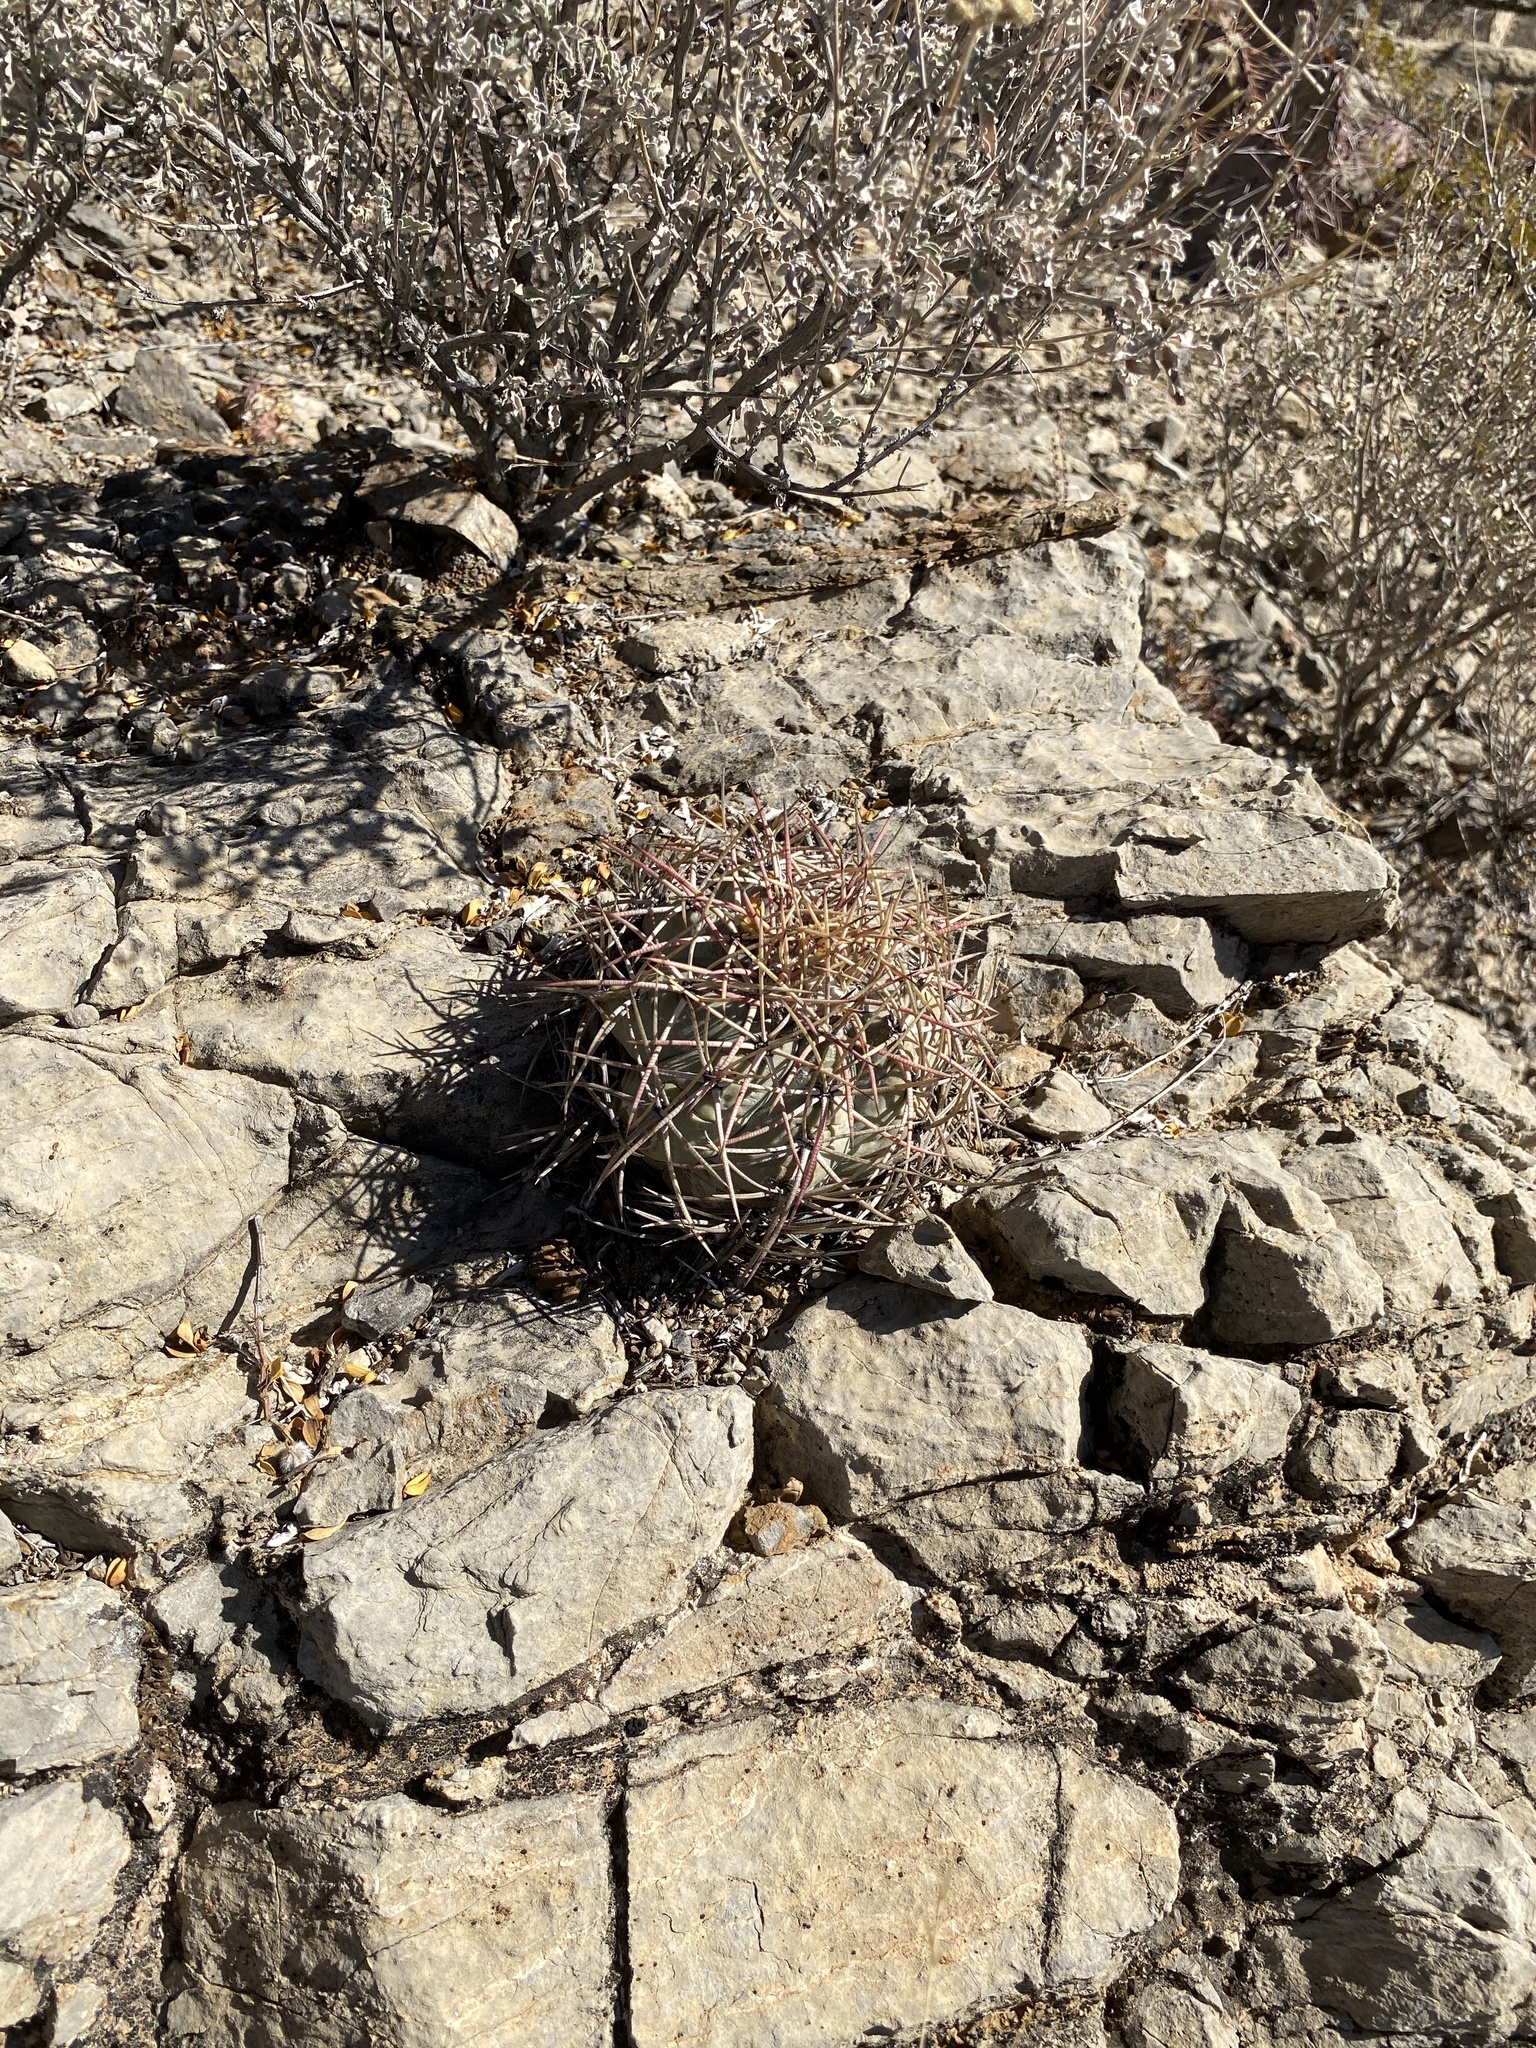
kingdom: Plantae
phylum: Tracheophyta
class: Magnoliopsida
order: Caryophyllales
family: Cactaceae
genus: Echinocactus
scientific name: Echinocactus horizonthalonius
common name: Devilshead
